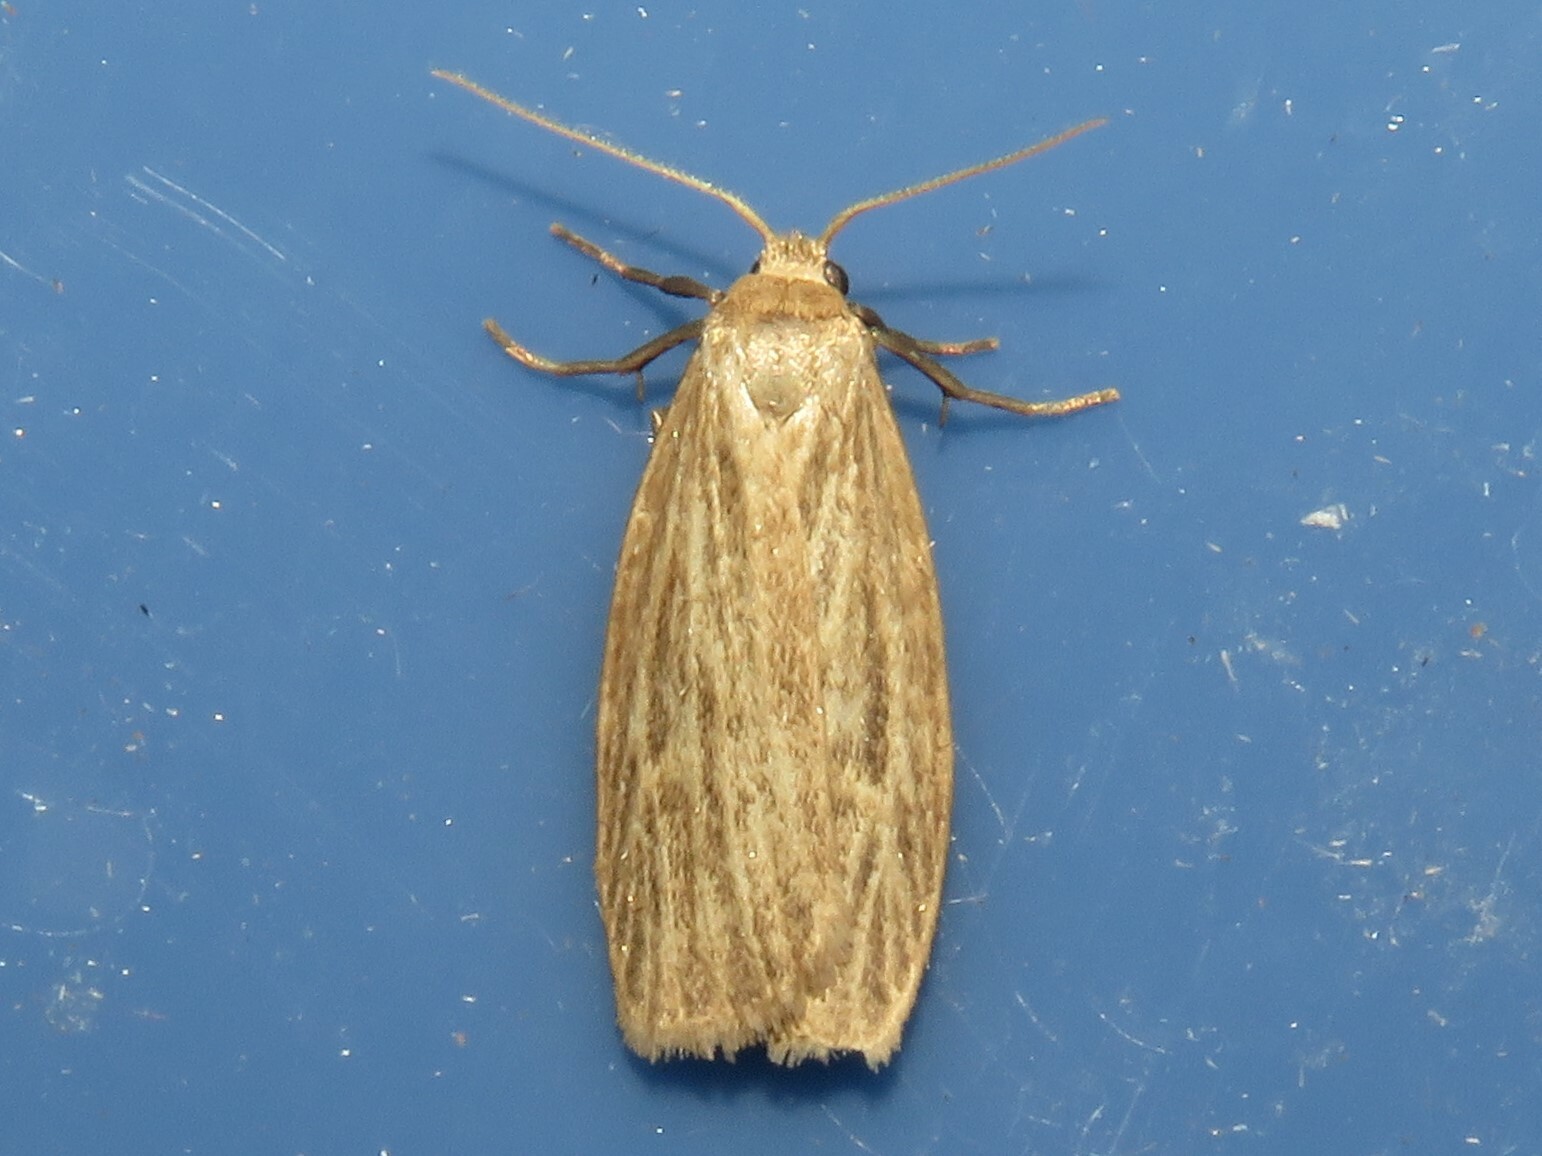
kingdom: Animalia
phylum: Arthropoda
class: Insecta
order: Lepidoptera
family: Erebidae
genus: Crambidia
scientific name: Crambidia pallida
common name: Pale lichen moth
